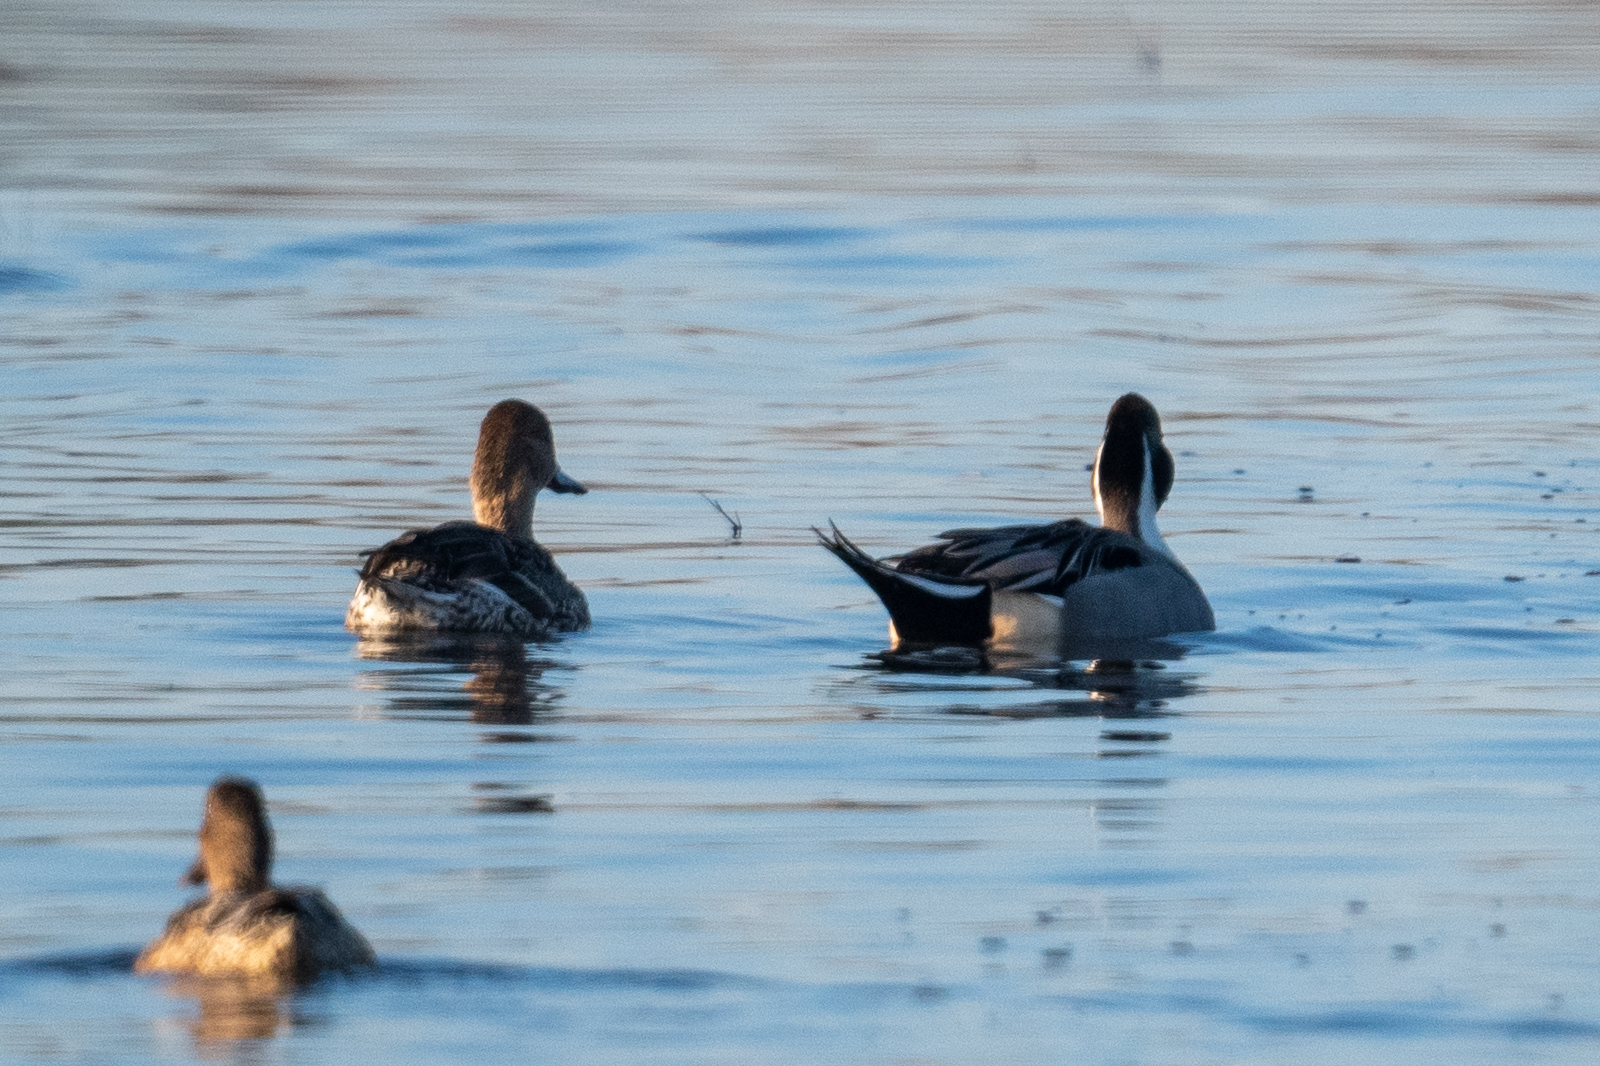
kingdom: Animalia
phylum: Chordata
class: Aves
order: Anseriformes
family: Anatidae
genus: Anas
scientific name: Anas acuta
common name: Northern pintail
